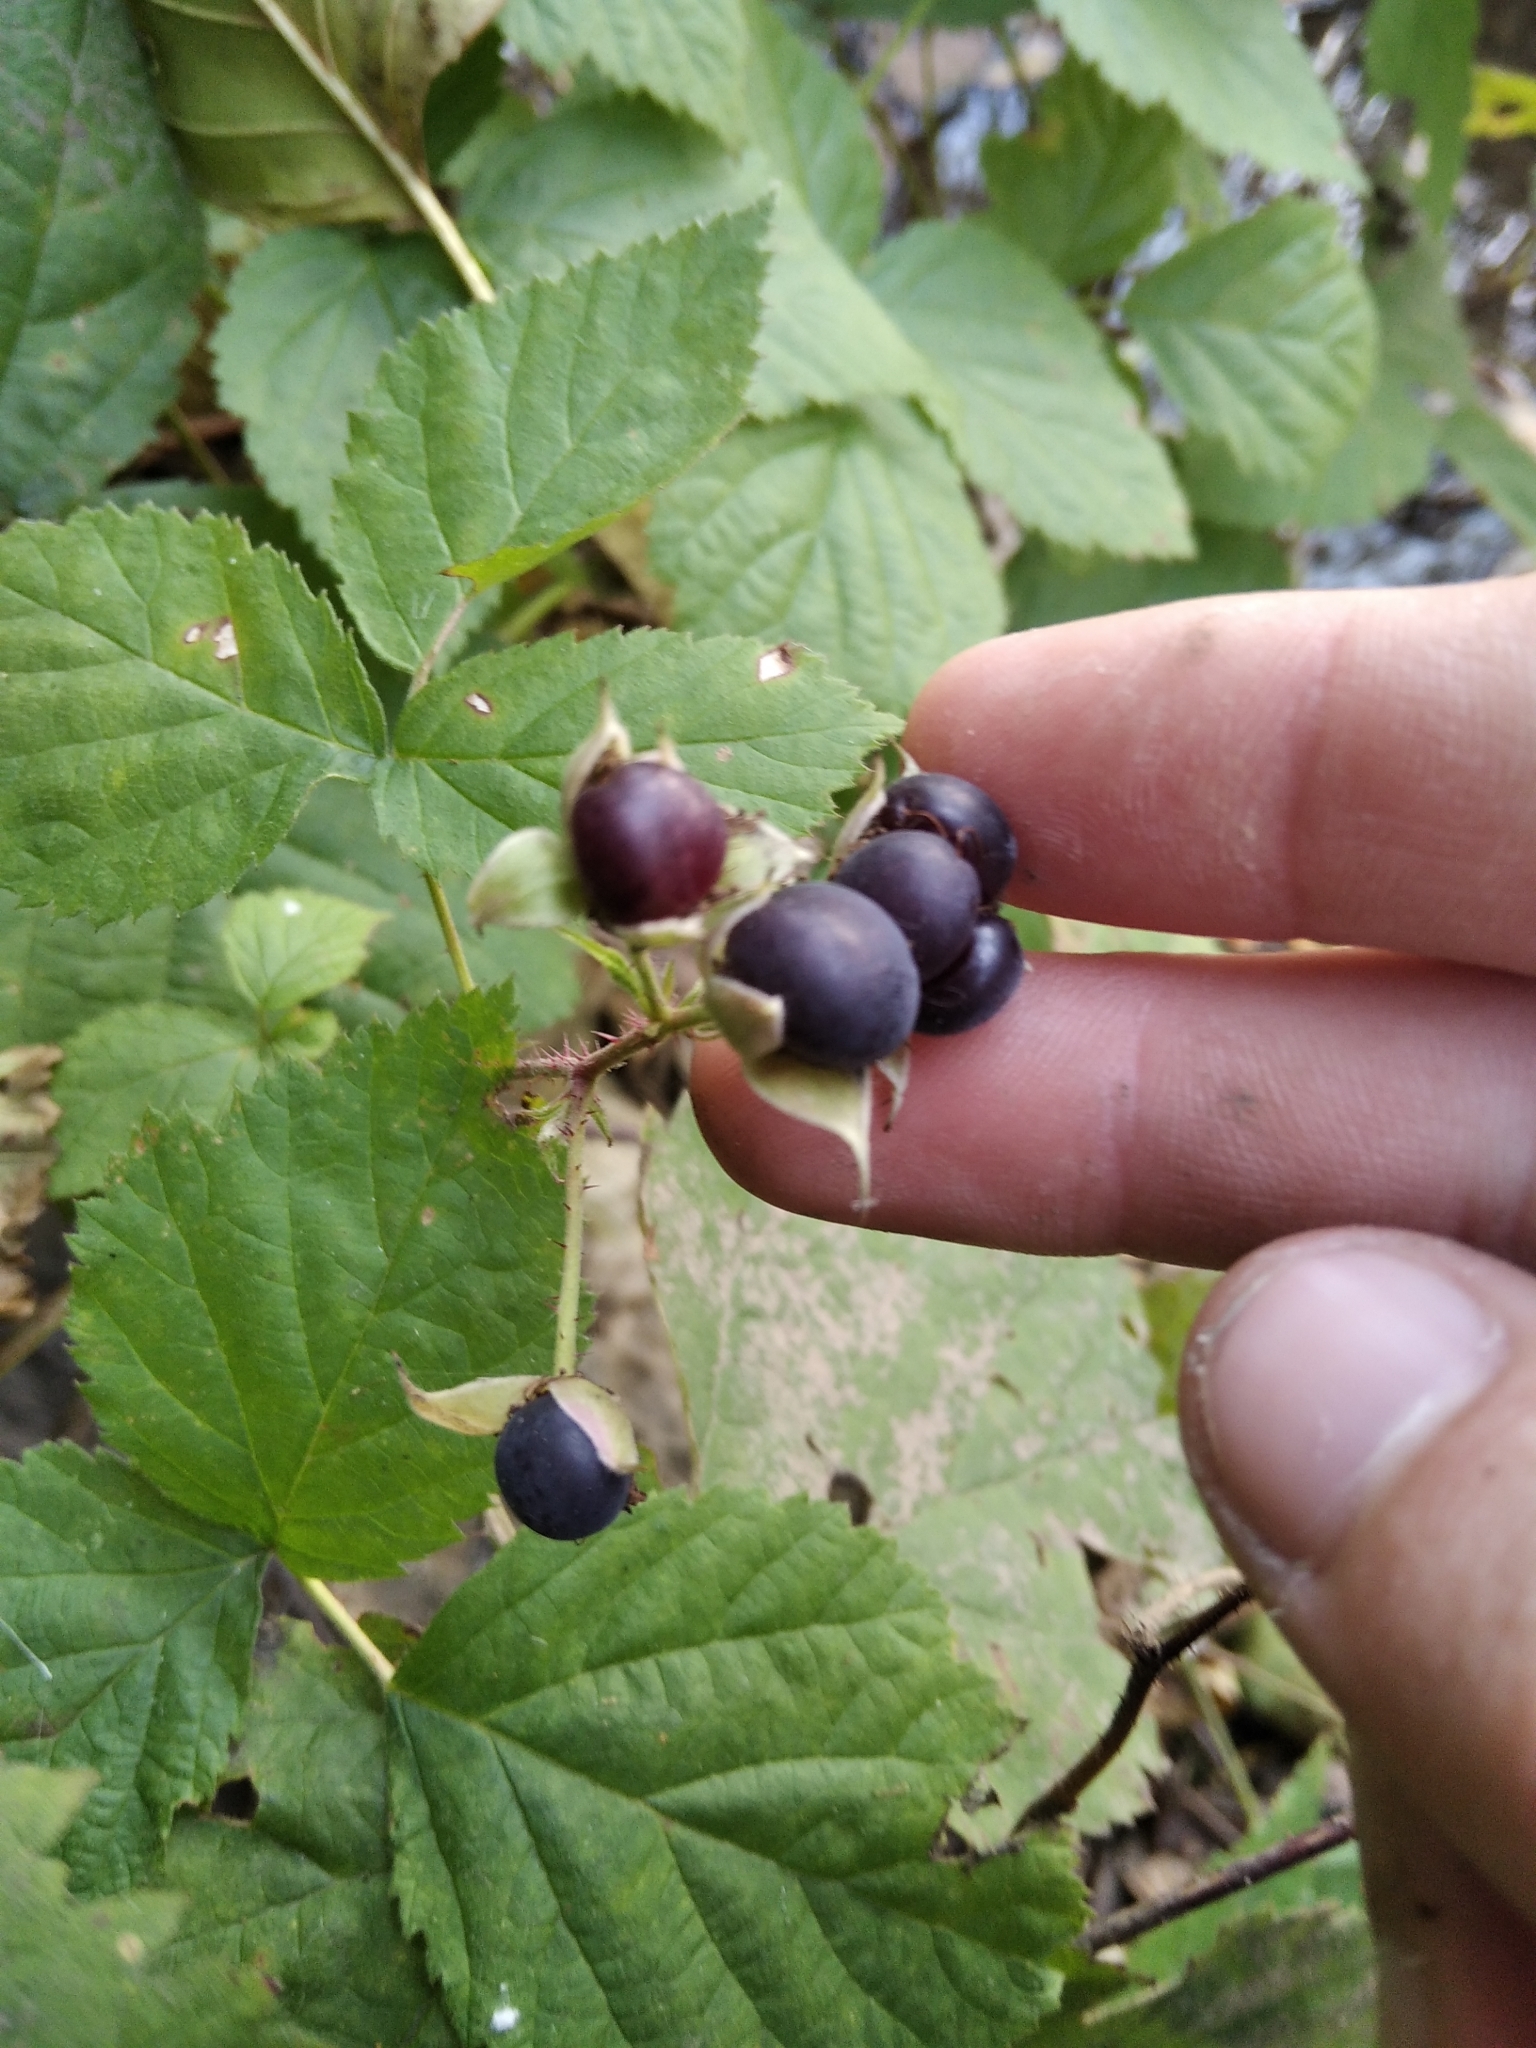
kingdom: Plantae
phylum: Tracheophyta
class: Magnoliopsida
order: Rosales
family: Rosaceae
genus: Rubus
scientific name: Rubus caesius
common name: Dewberry
